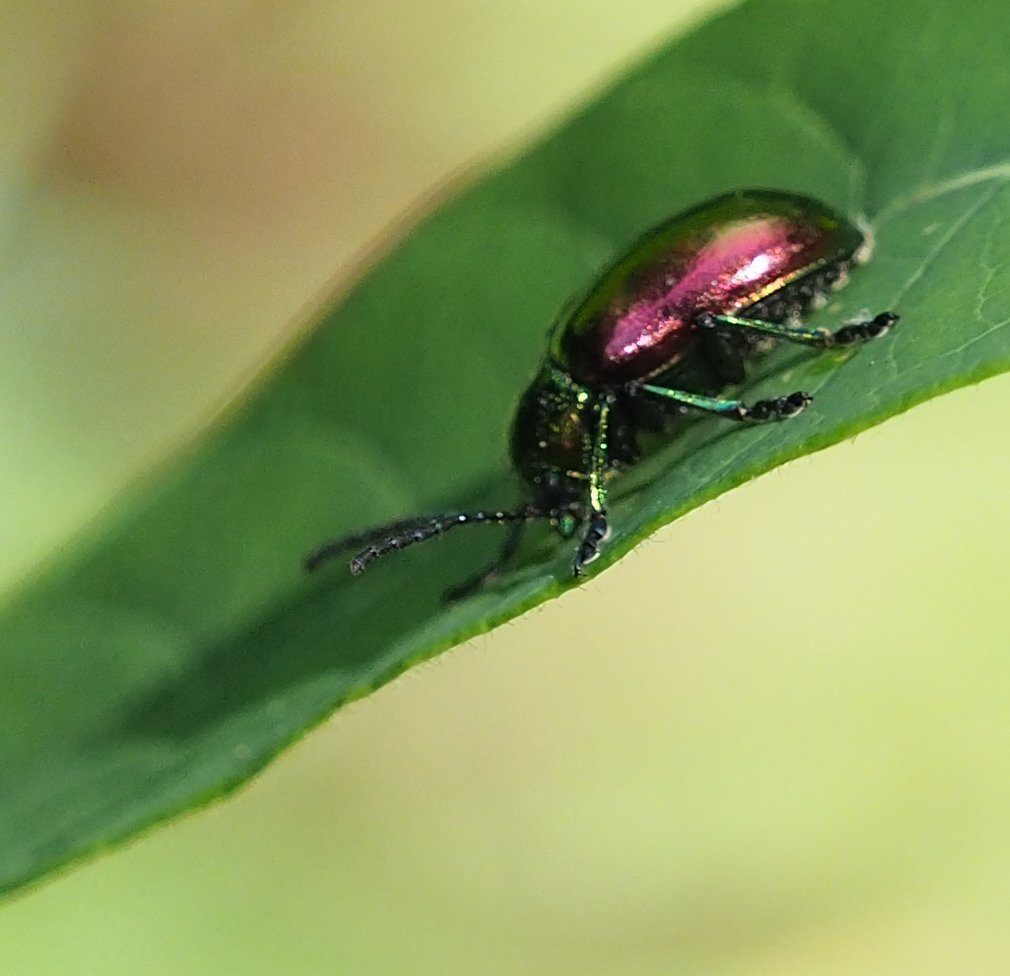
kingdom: Animalia
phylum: Arthropoda
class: Insecta
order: Coleoptera
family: Chrysomelidae
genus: Chrysochus
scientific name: Chrysochus auratus
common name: Dogbane leaf beetle
